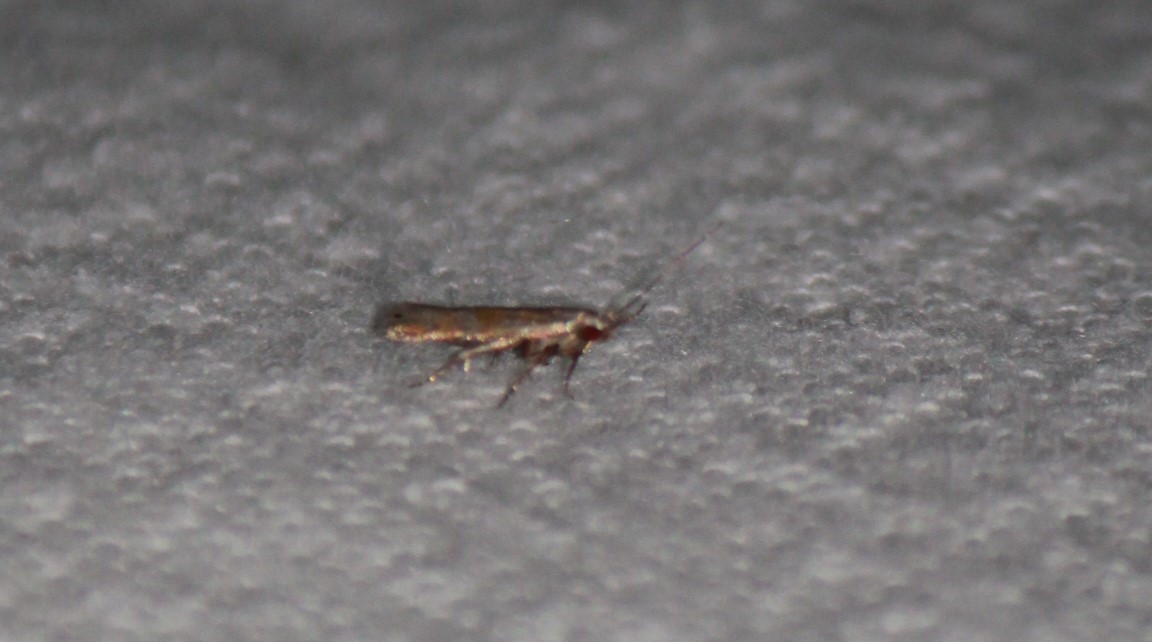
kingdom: Animalia
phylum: Arthropoda
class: Insecta
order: Lepidoptera
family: Gelechiidae
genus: Battaristis
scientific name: Battaristis vittella
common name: Orange stripe-backed moth
